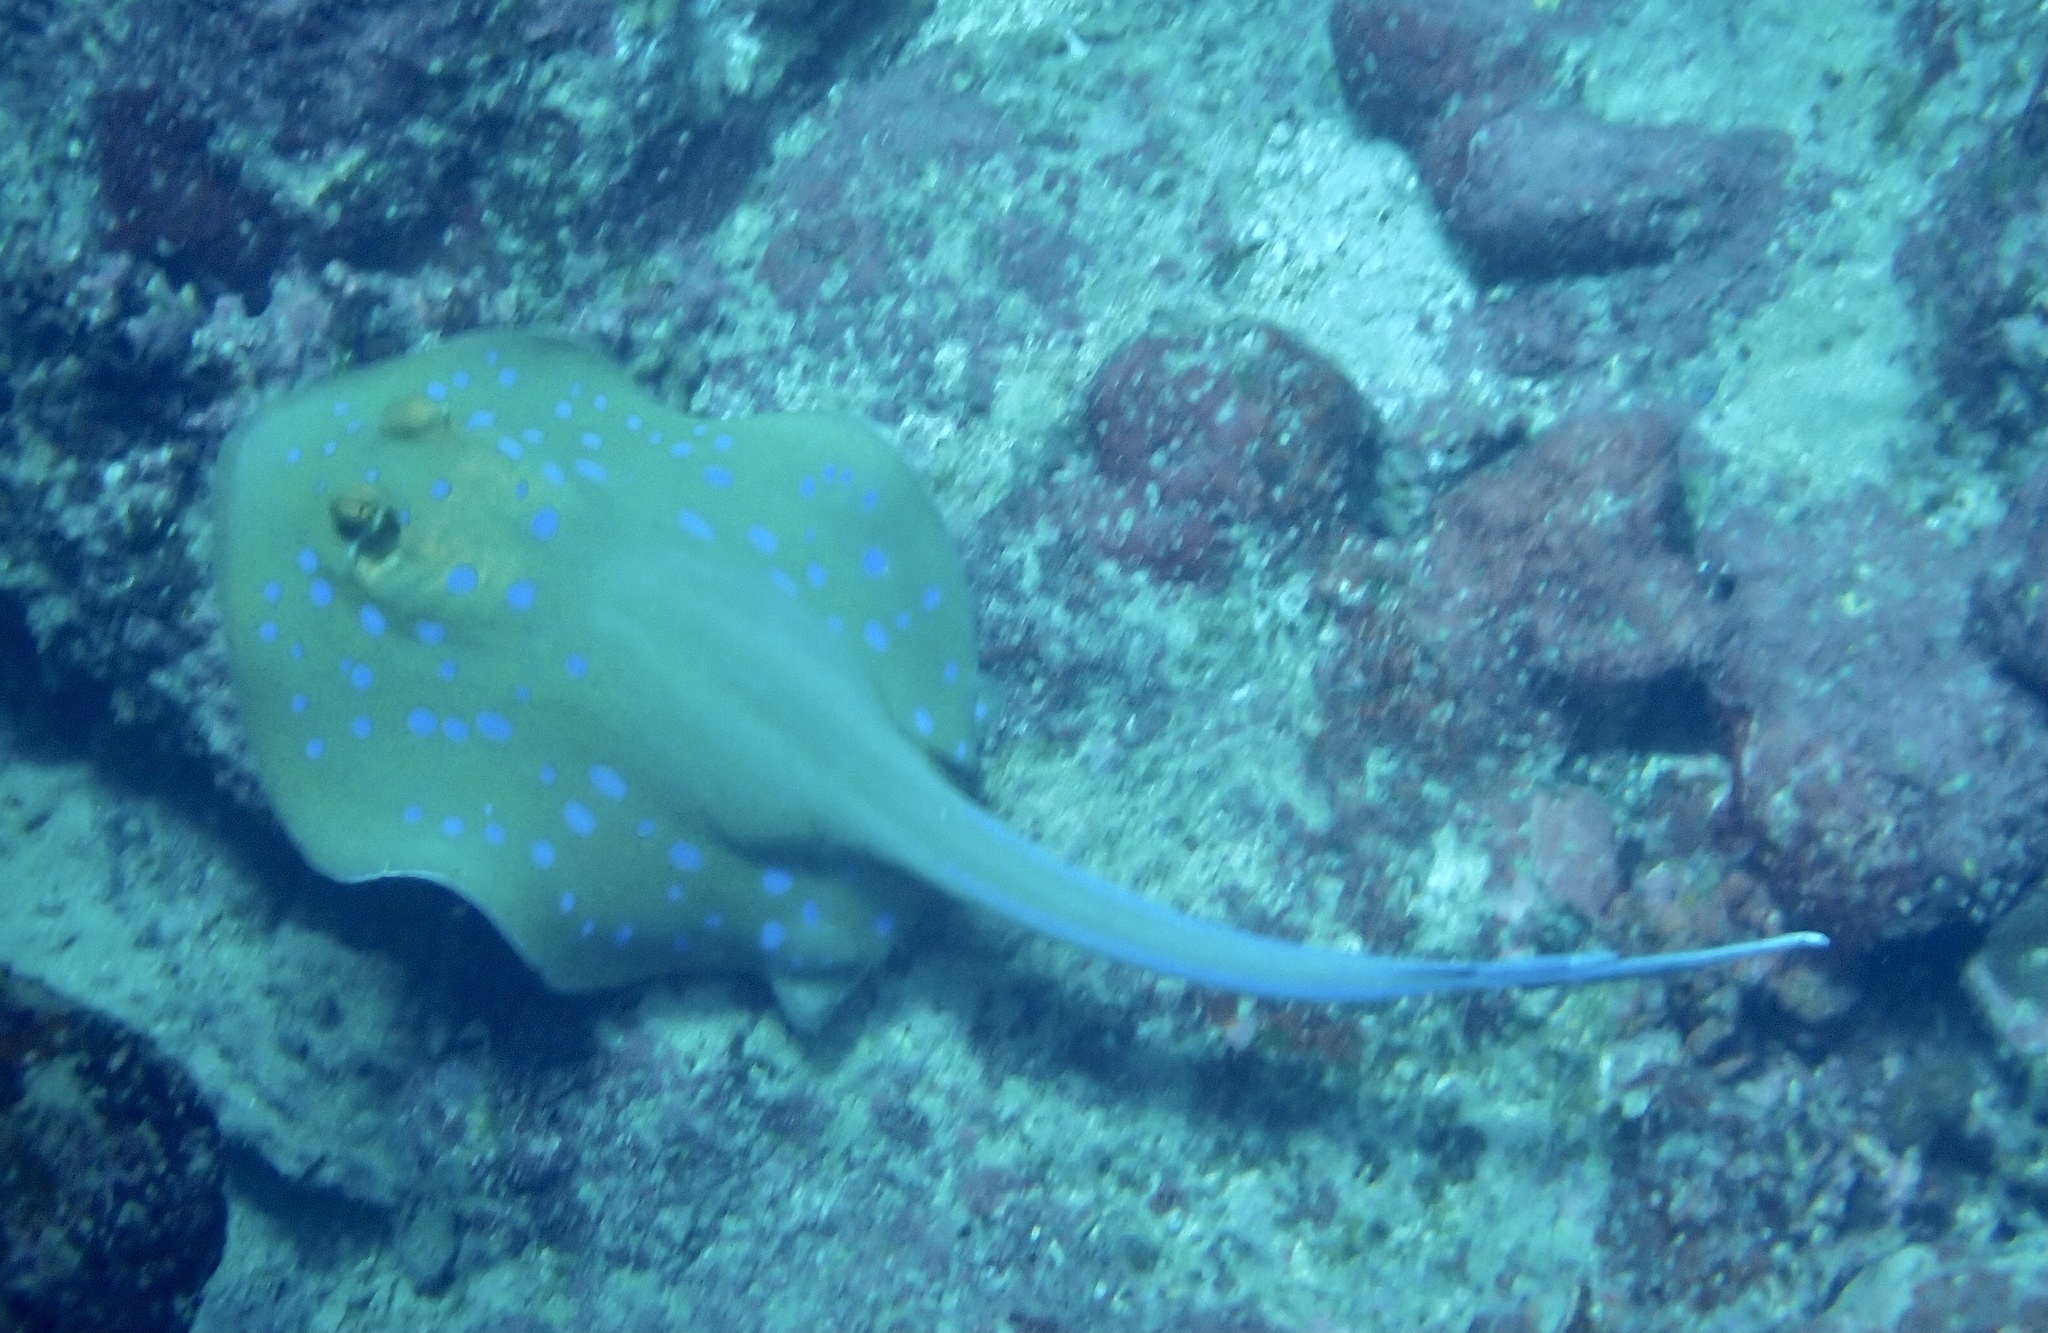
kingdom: Animalia
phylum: Chordata
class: Elasmobranchii
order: Myliobatiformes
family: Dasyatidae
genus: Taeniura
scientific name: Taeniura lymma
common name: Bluespotted ribbontail ray
